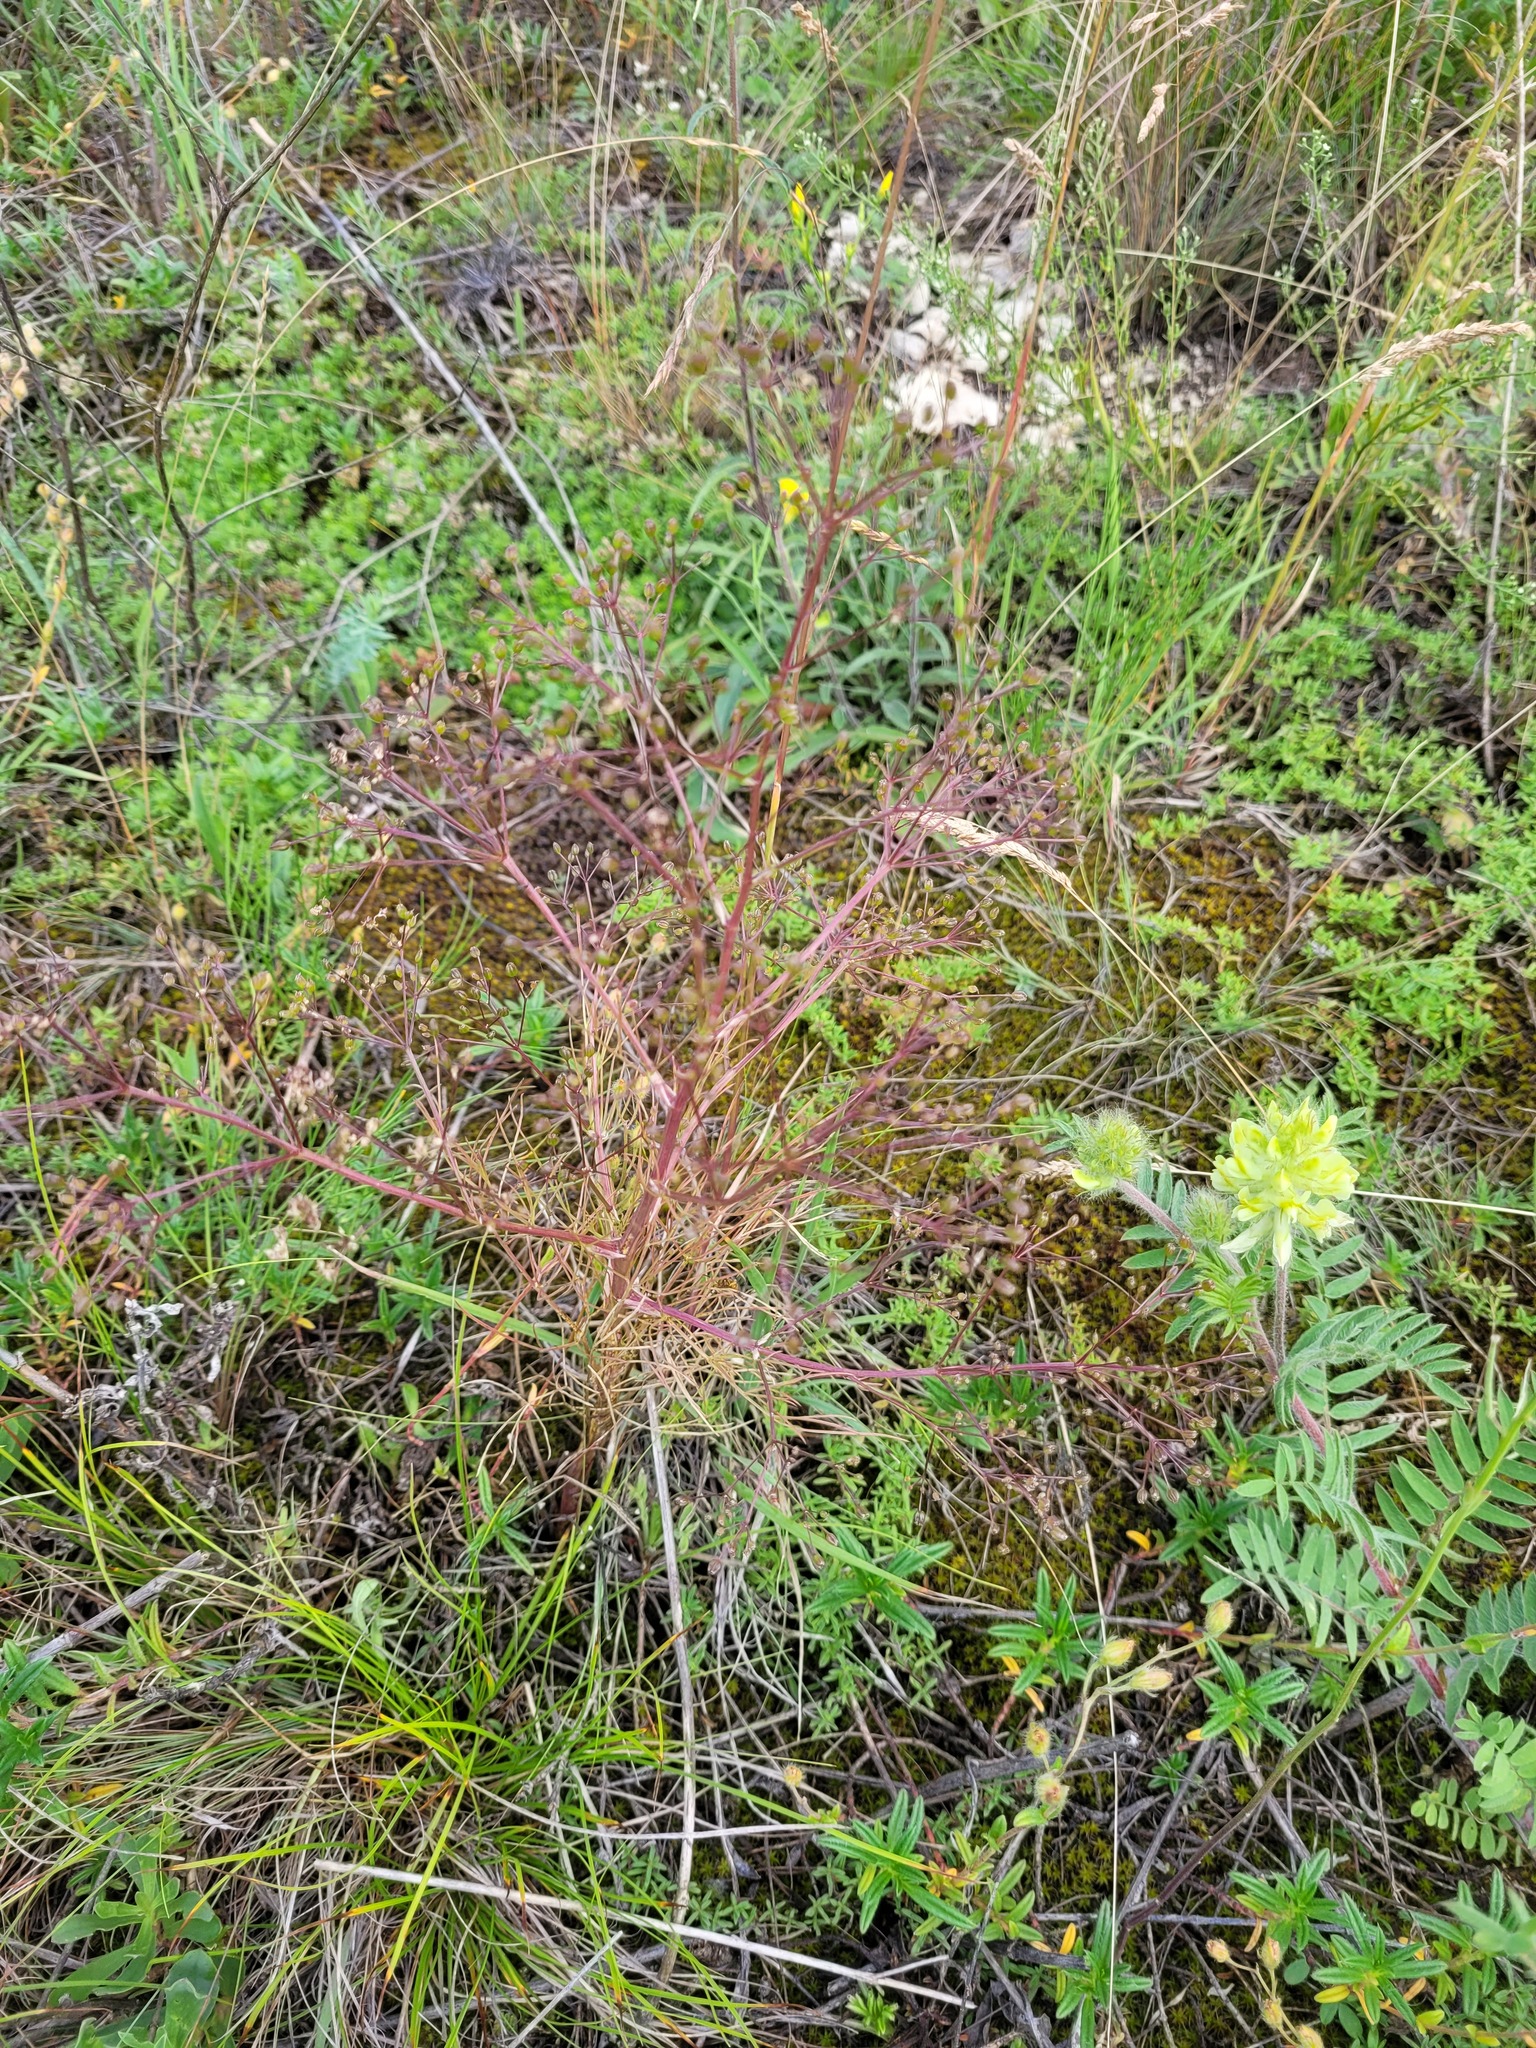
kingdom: Plantae
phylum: Tracheophyta
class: Magnoliopsida
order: Apiales
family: Apiaceae
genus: Trinia
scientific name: Trinia multicaulis
